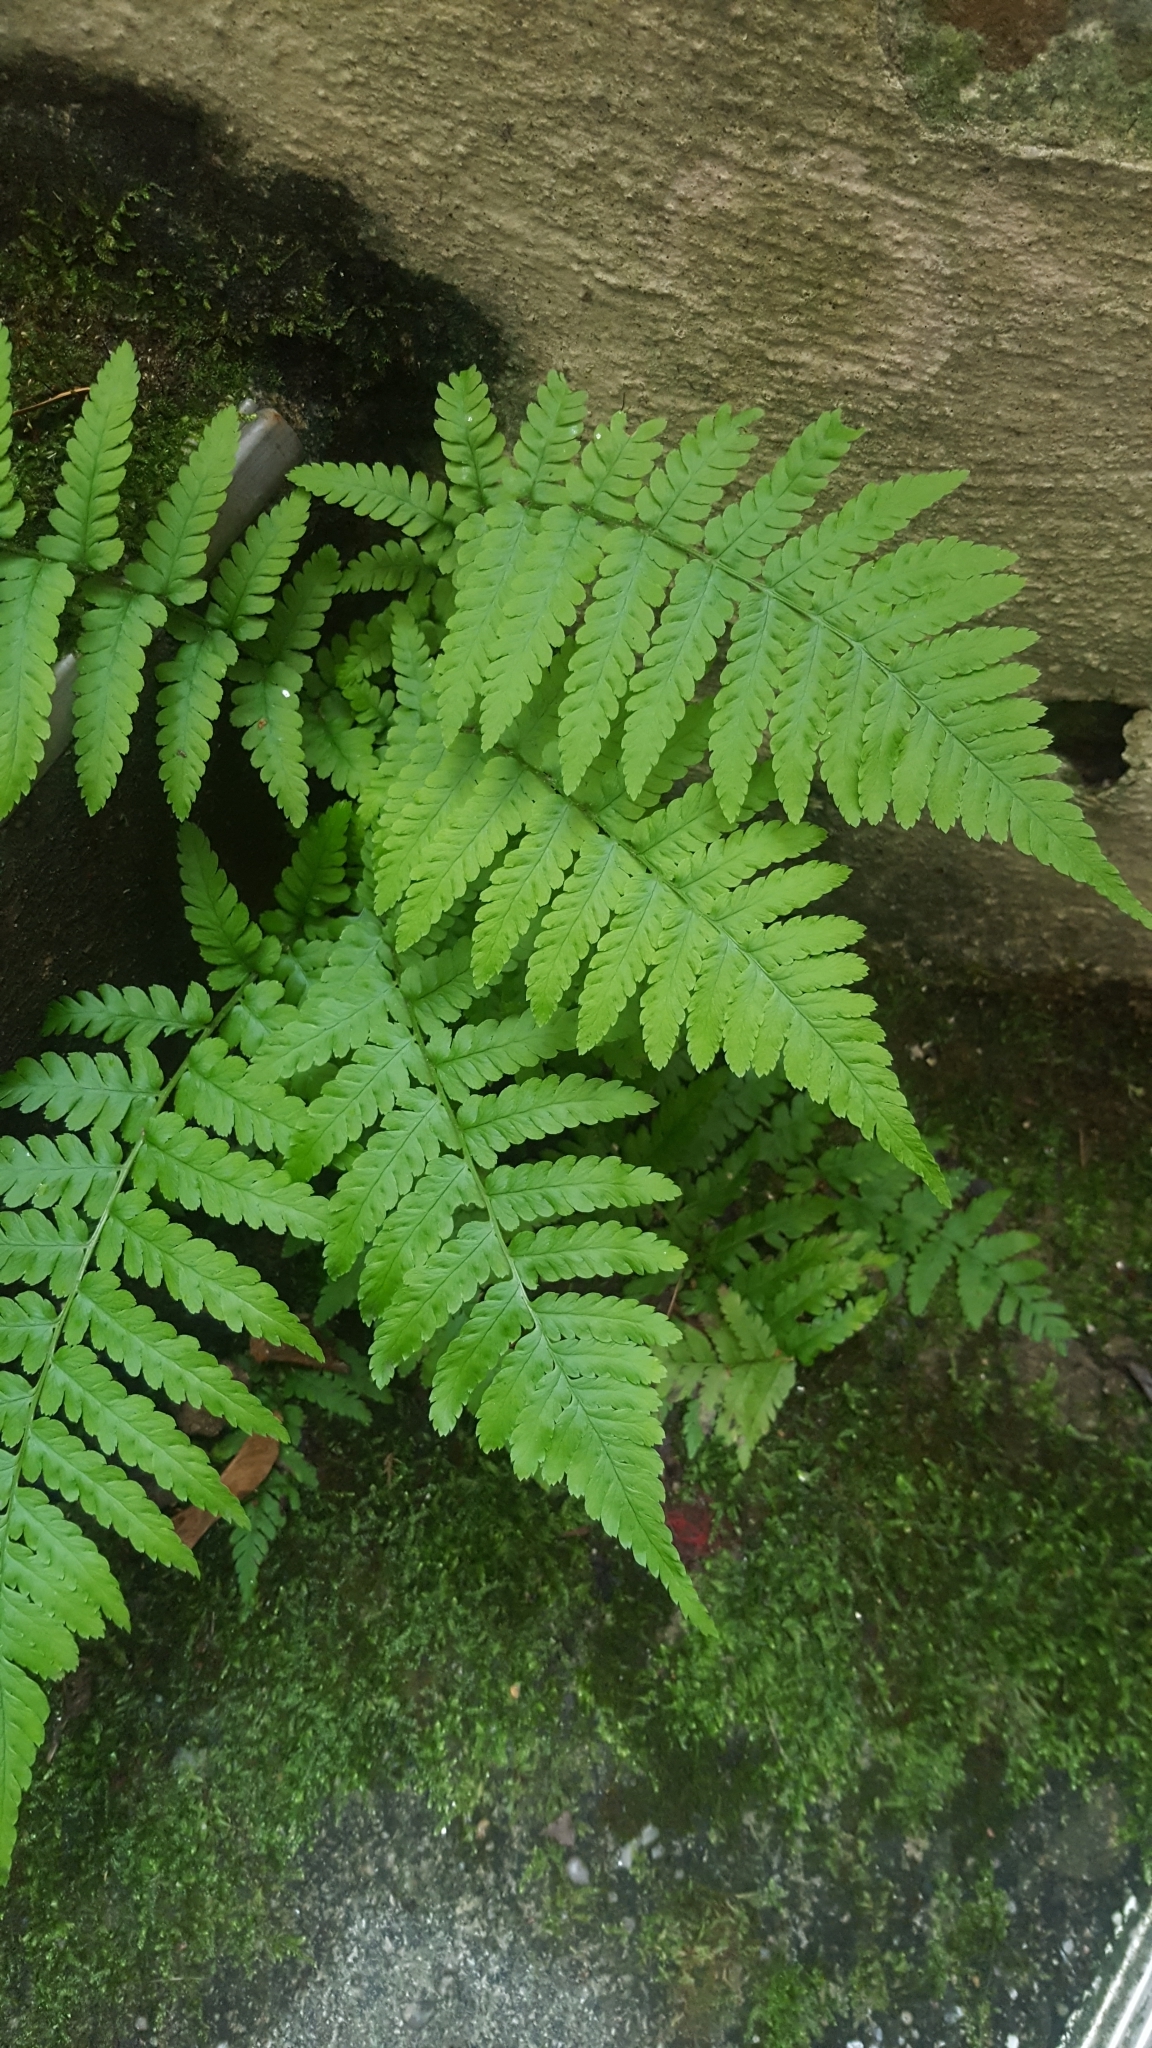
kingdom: Plantae
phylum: Tracheophyta
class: Polypodiopsida
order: Polypodiales
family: Dryopteridaceae
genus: Dryopteris
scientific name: Dryopteris filix-mas
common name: Male fern
